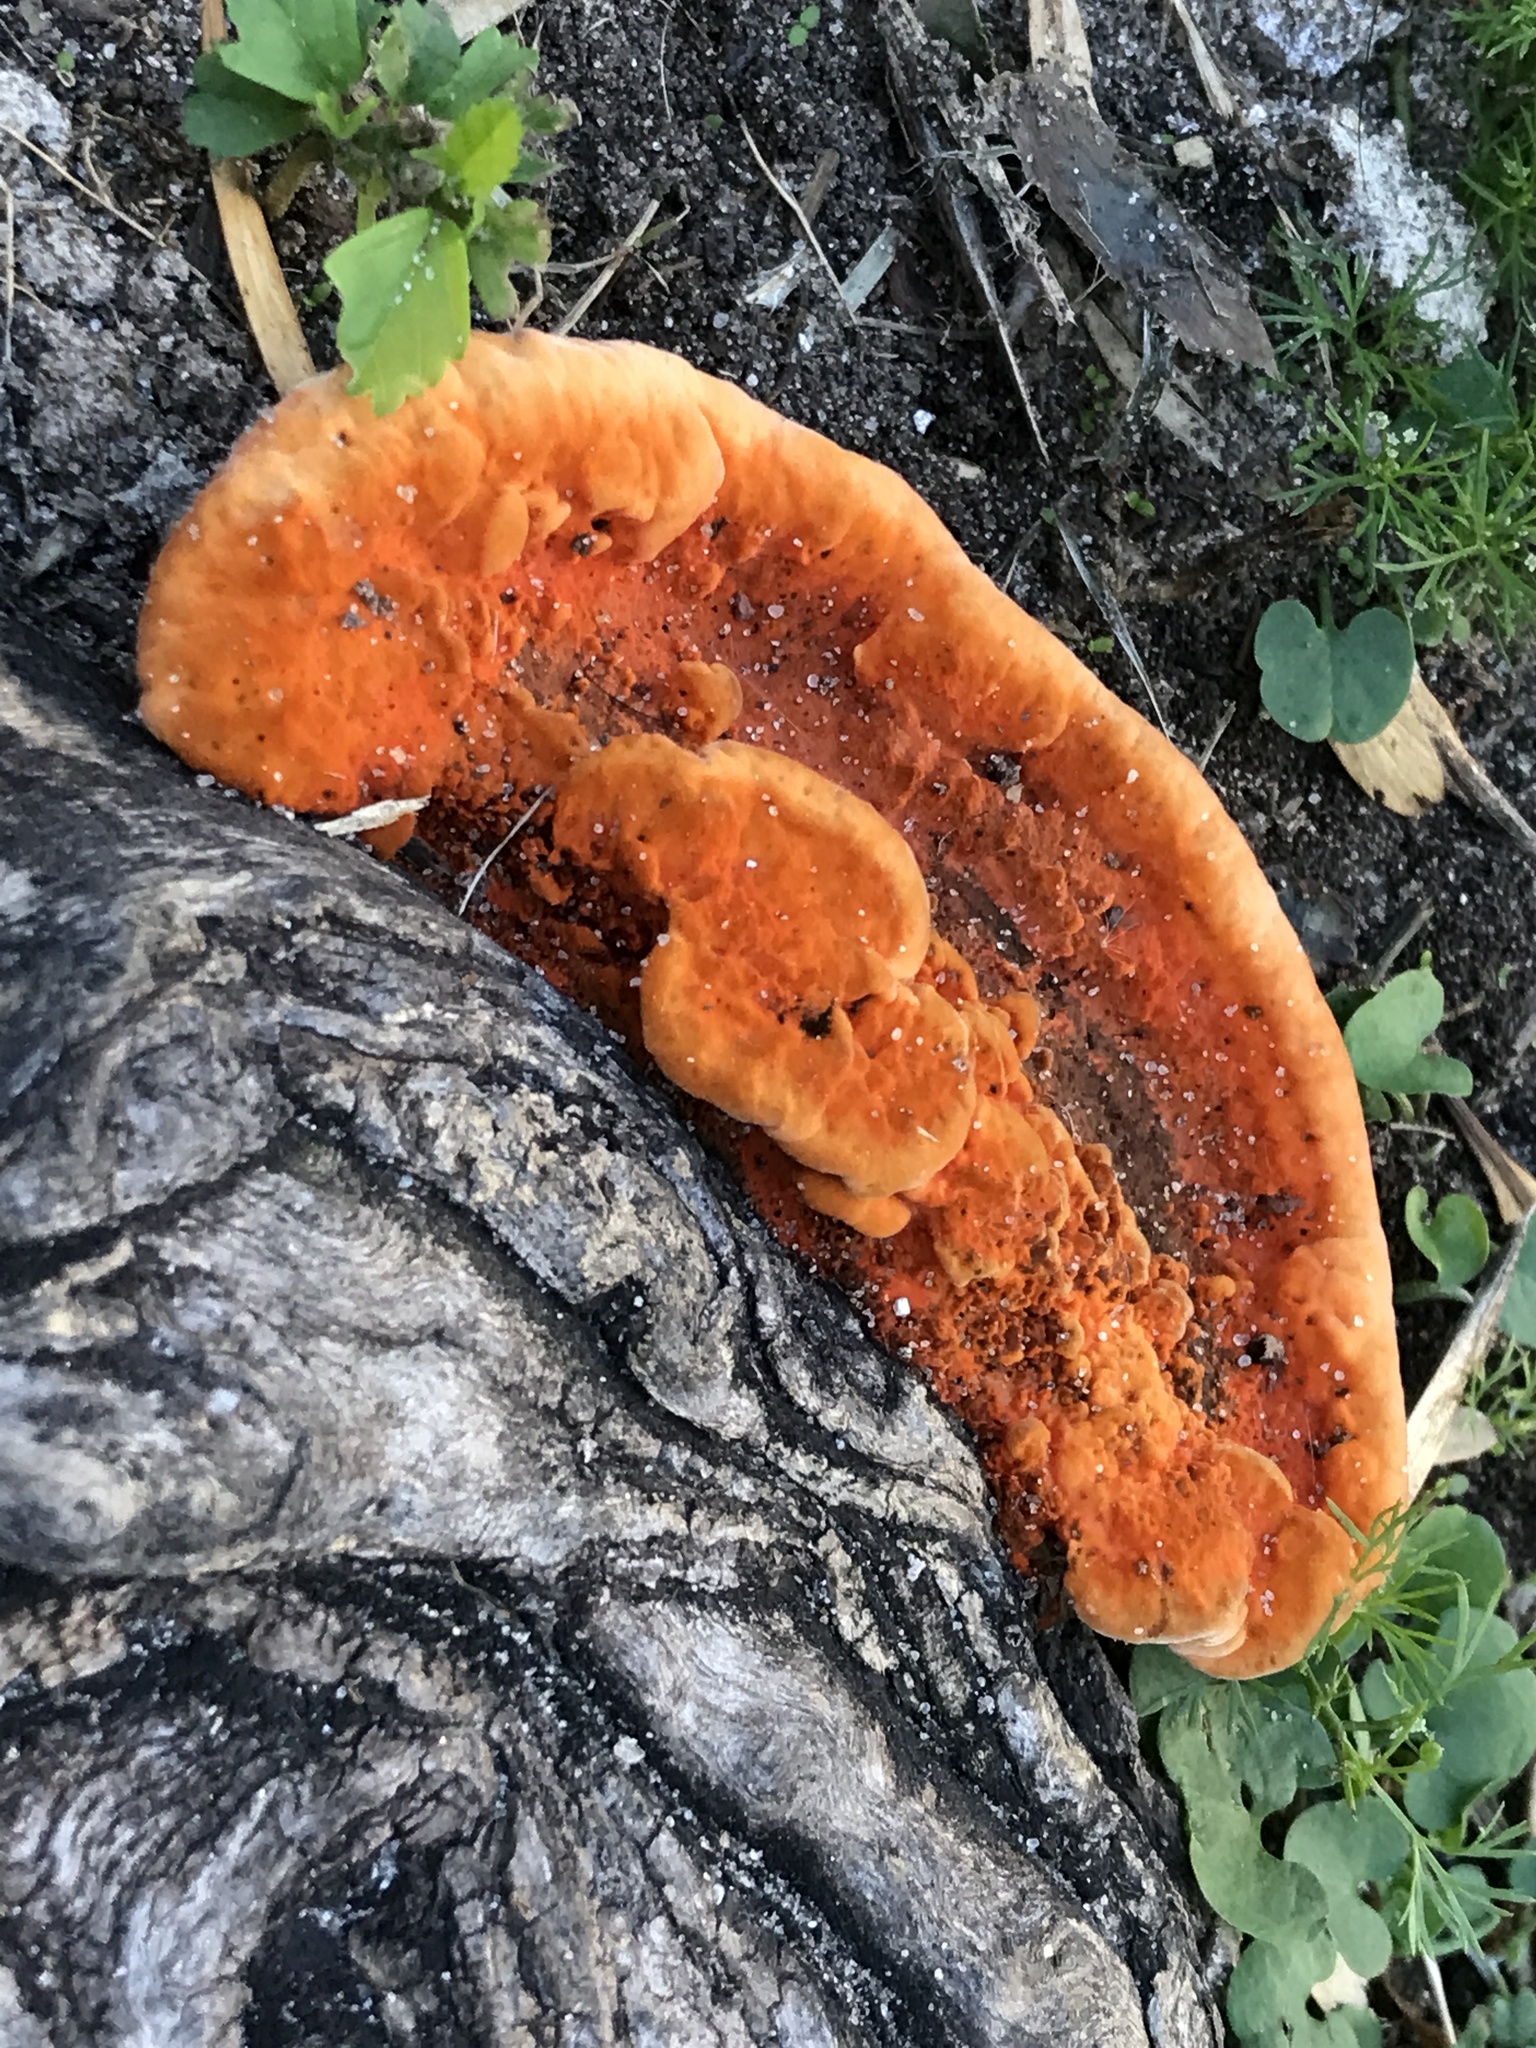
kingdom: Fungi
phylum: Basidiomycota
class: Agaricomycetes
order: Polyporales
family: Polyporaceae
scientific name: Polyporaceae
